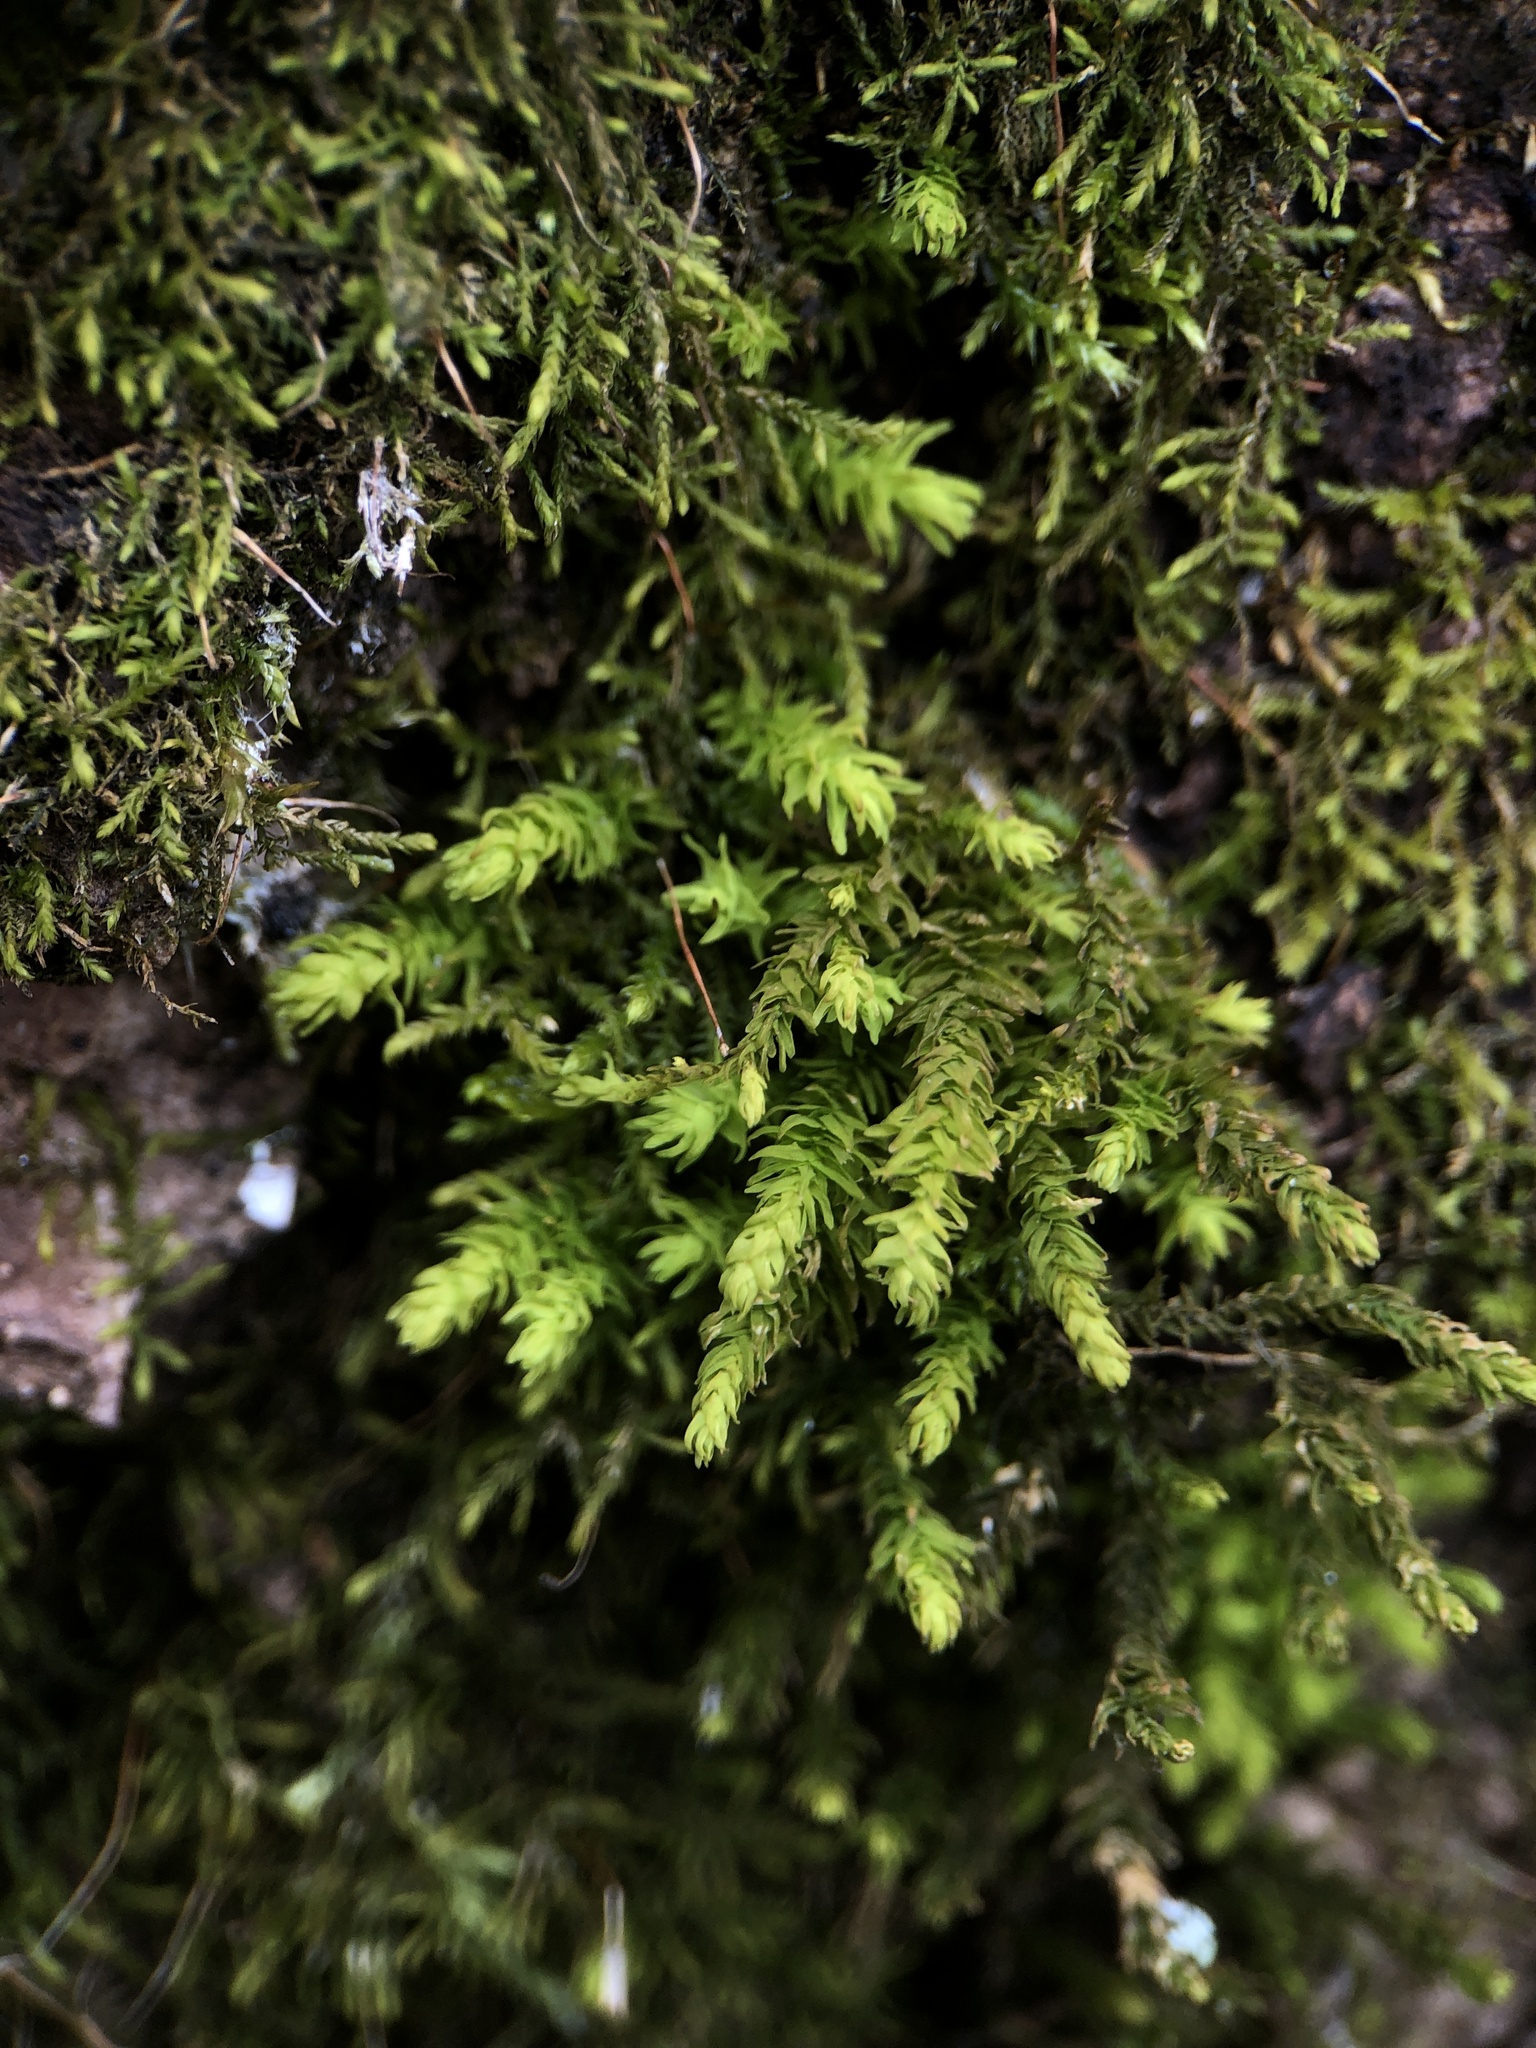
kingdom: Plantae
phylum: Bryophyta
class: Bryopsida
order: Hypnales
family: Anomodontaceae
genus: Anomodon
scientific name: Anomodon viticulosus
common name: Tall anomodon
